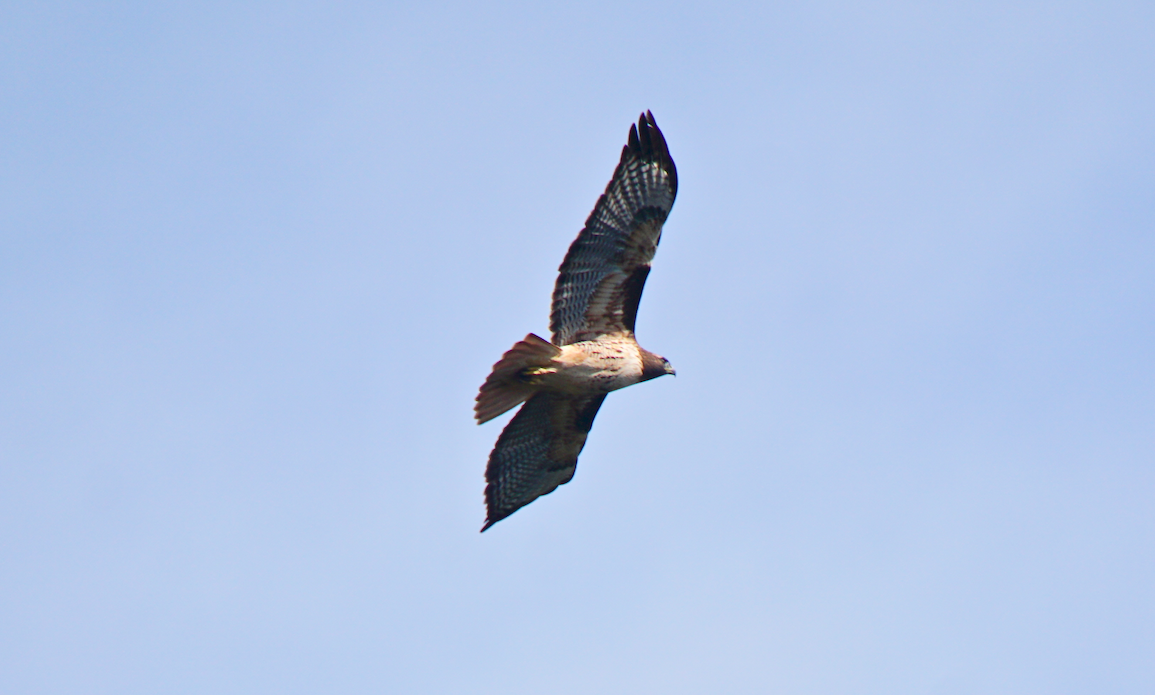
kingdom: Animalia
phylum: Chordata
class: Aves
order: Accipitriformes
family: Accipitridae
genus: Buteo
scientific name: Buteo jamaicensis
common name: Red-tailed hawk
